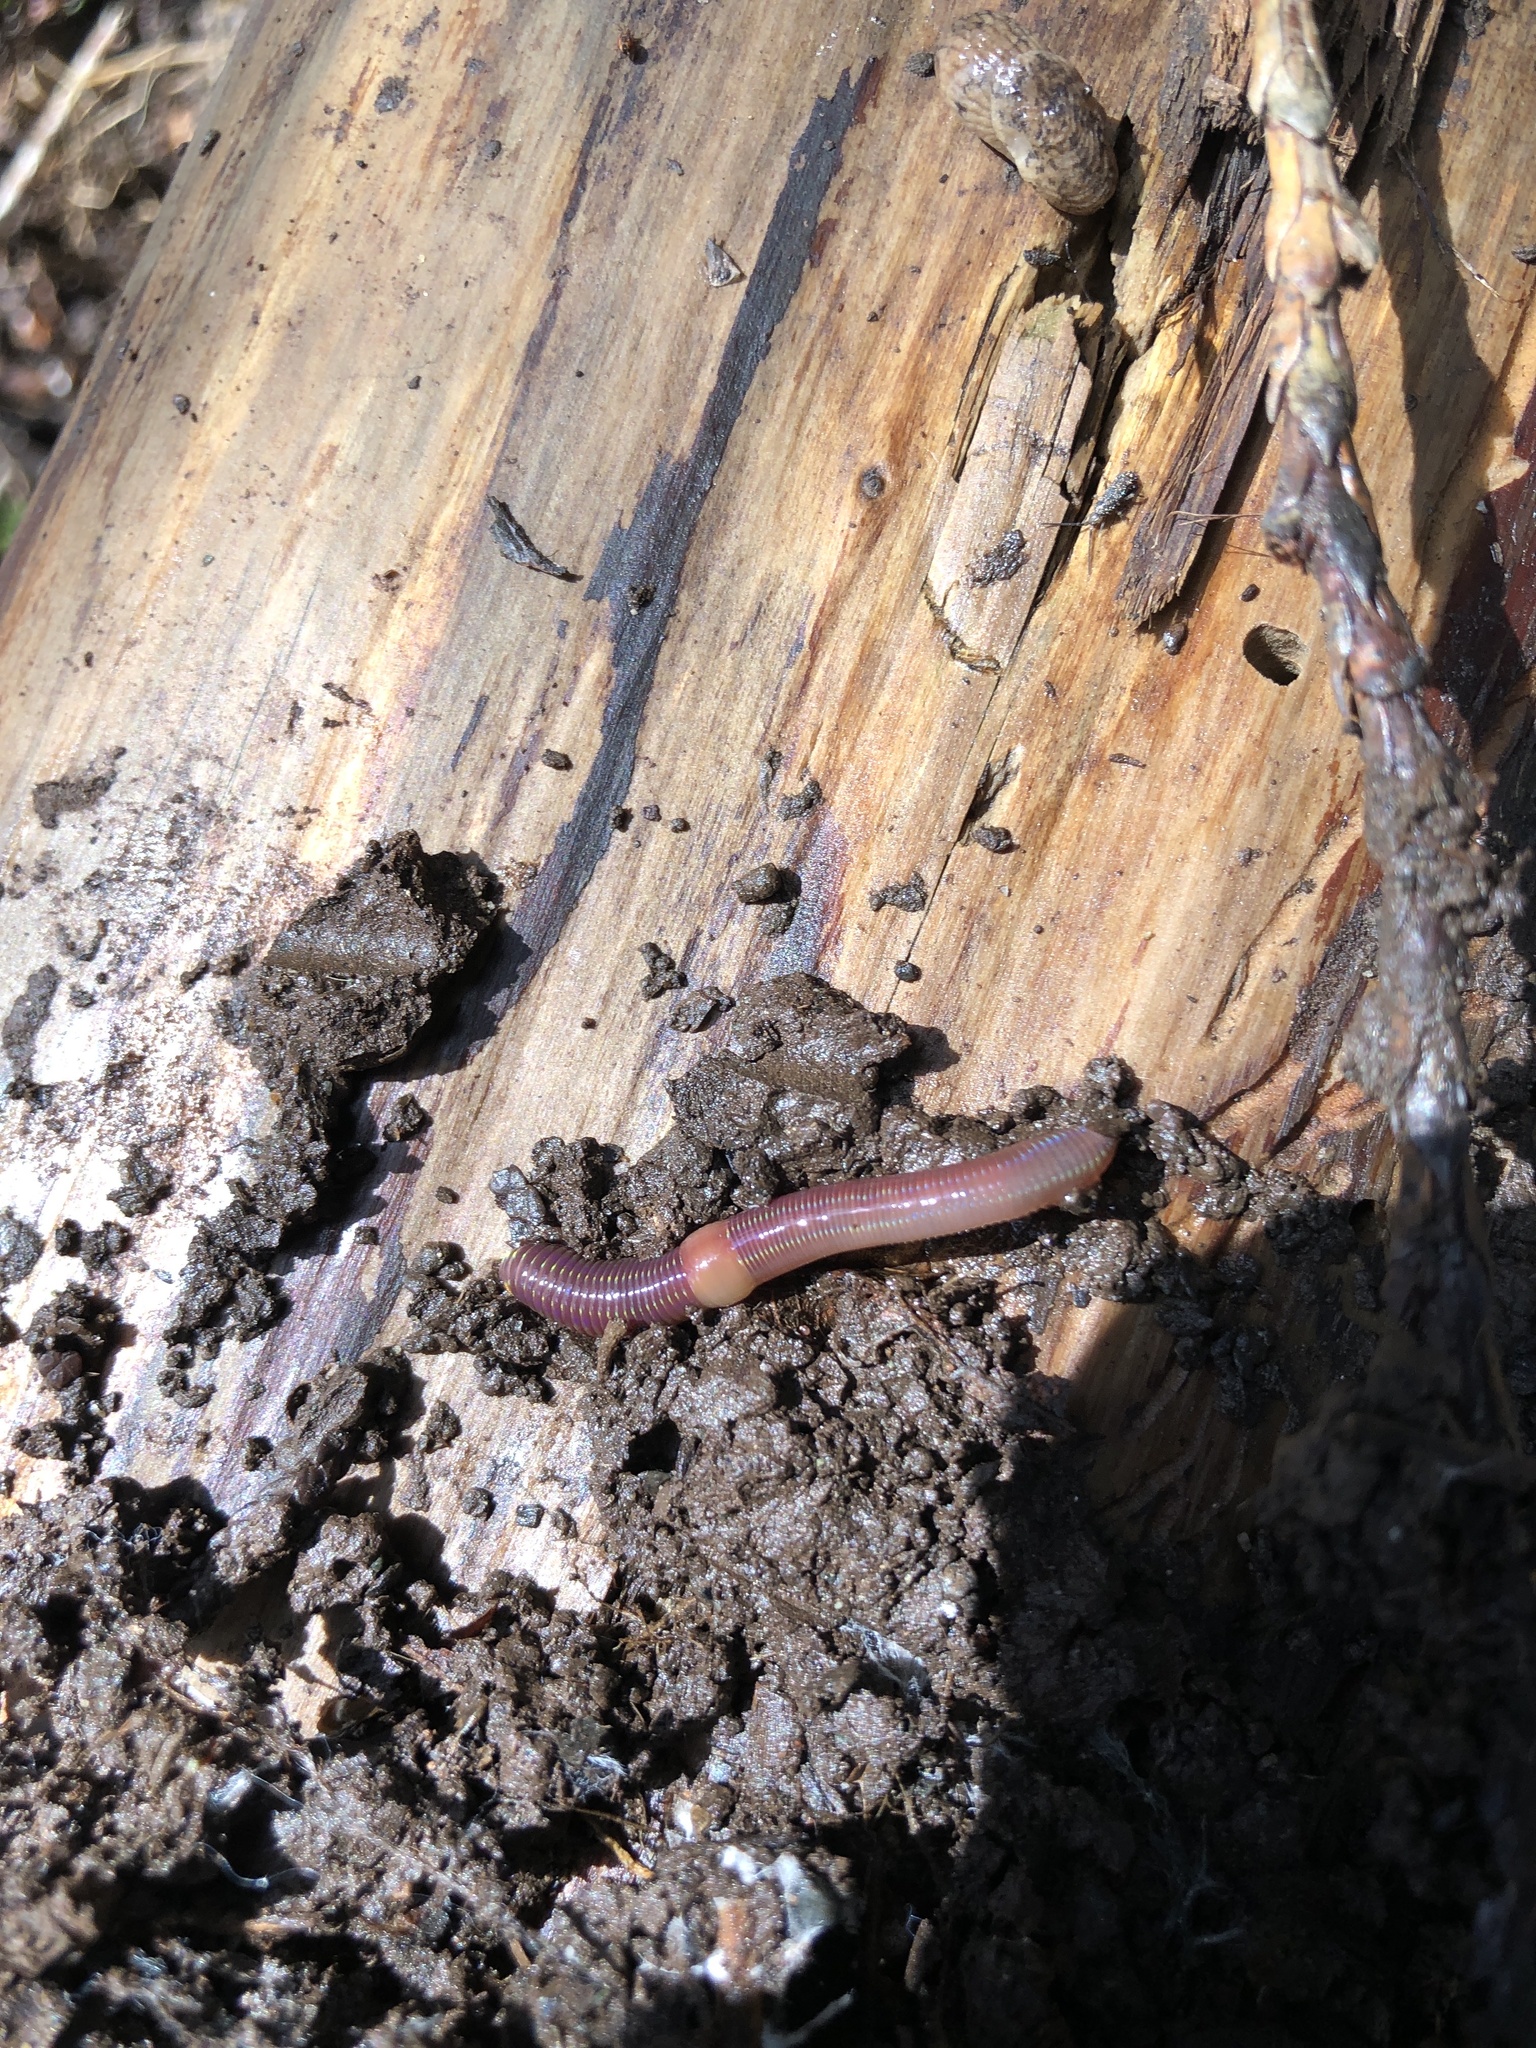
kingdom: Animalia
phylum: Annelida
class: Clitellata
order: Crassiclitellata
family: Lumbricidae
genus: Lumbricus
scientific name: Lumbricus terrestris
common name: Common earthworm
